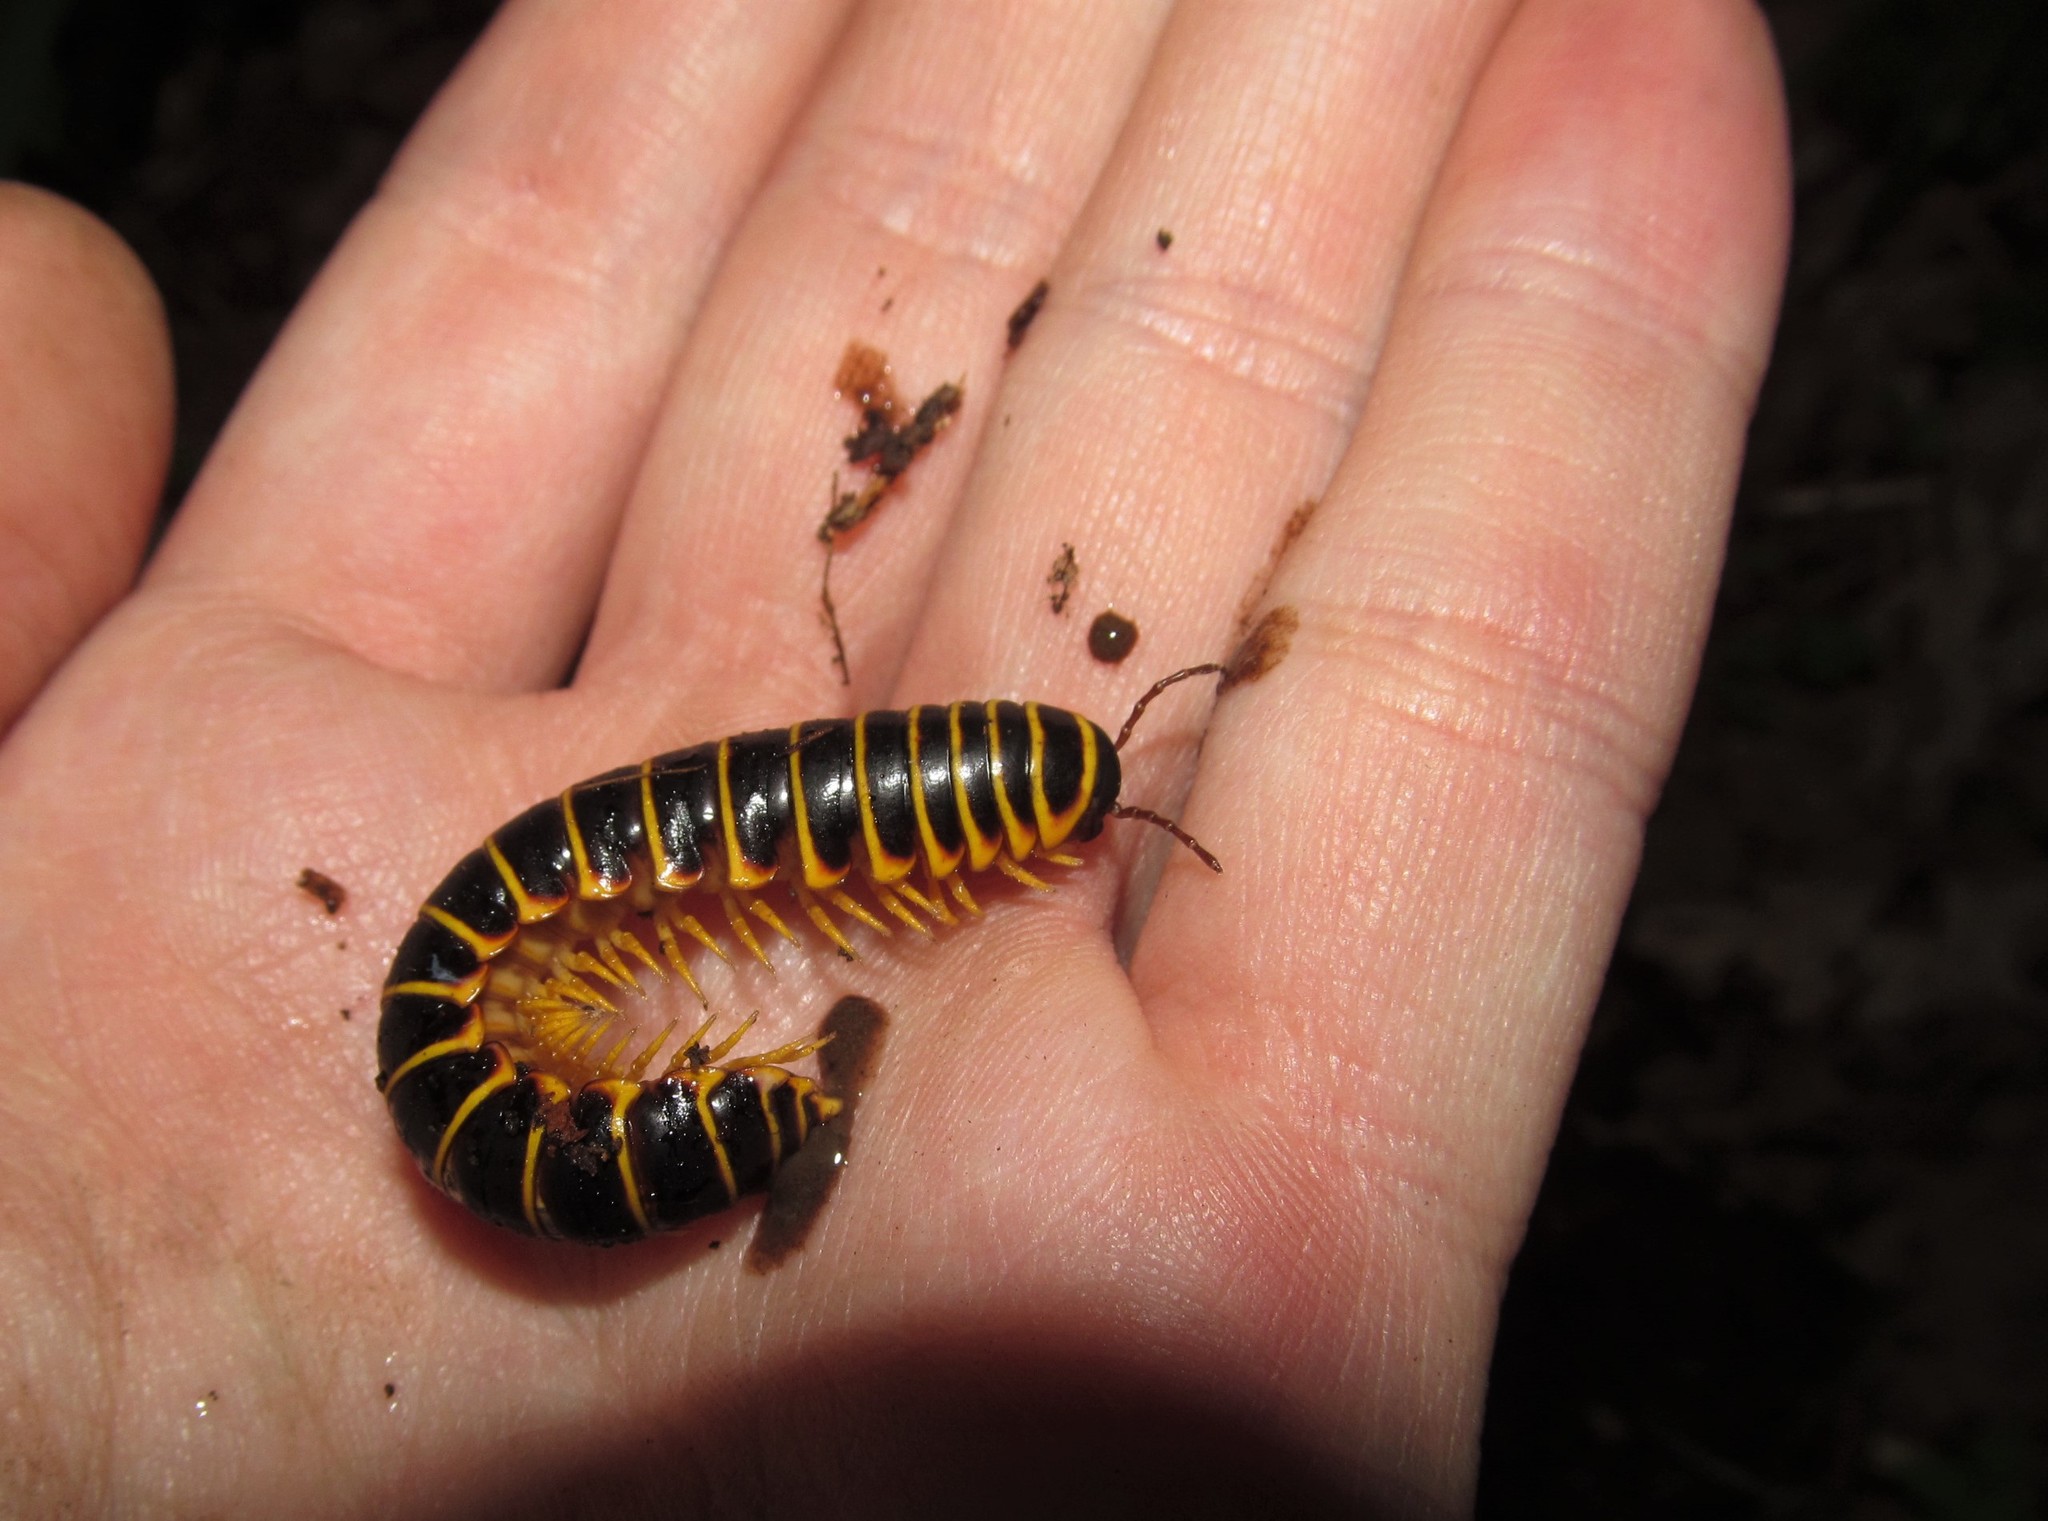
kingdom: Animalia
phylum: Arthropoda
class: Diplopoda
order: Polydesmida
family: Xystodesmidae
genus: Apheloria
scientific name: Apheloria virginiensis
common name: Black-and-gold flat millipede
